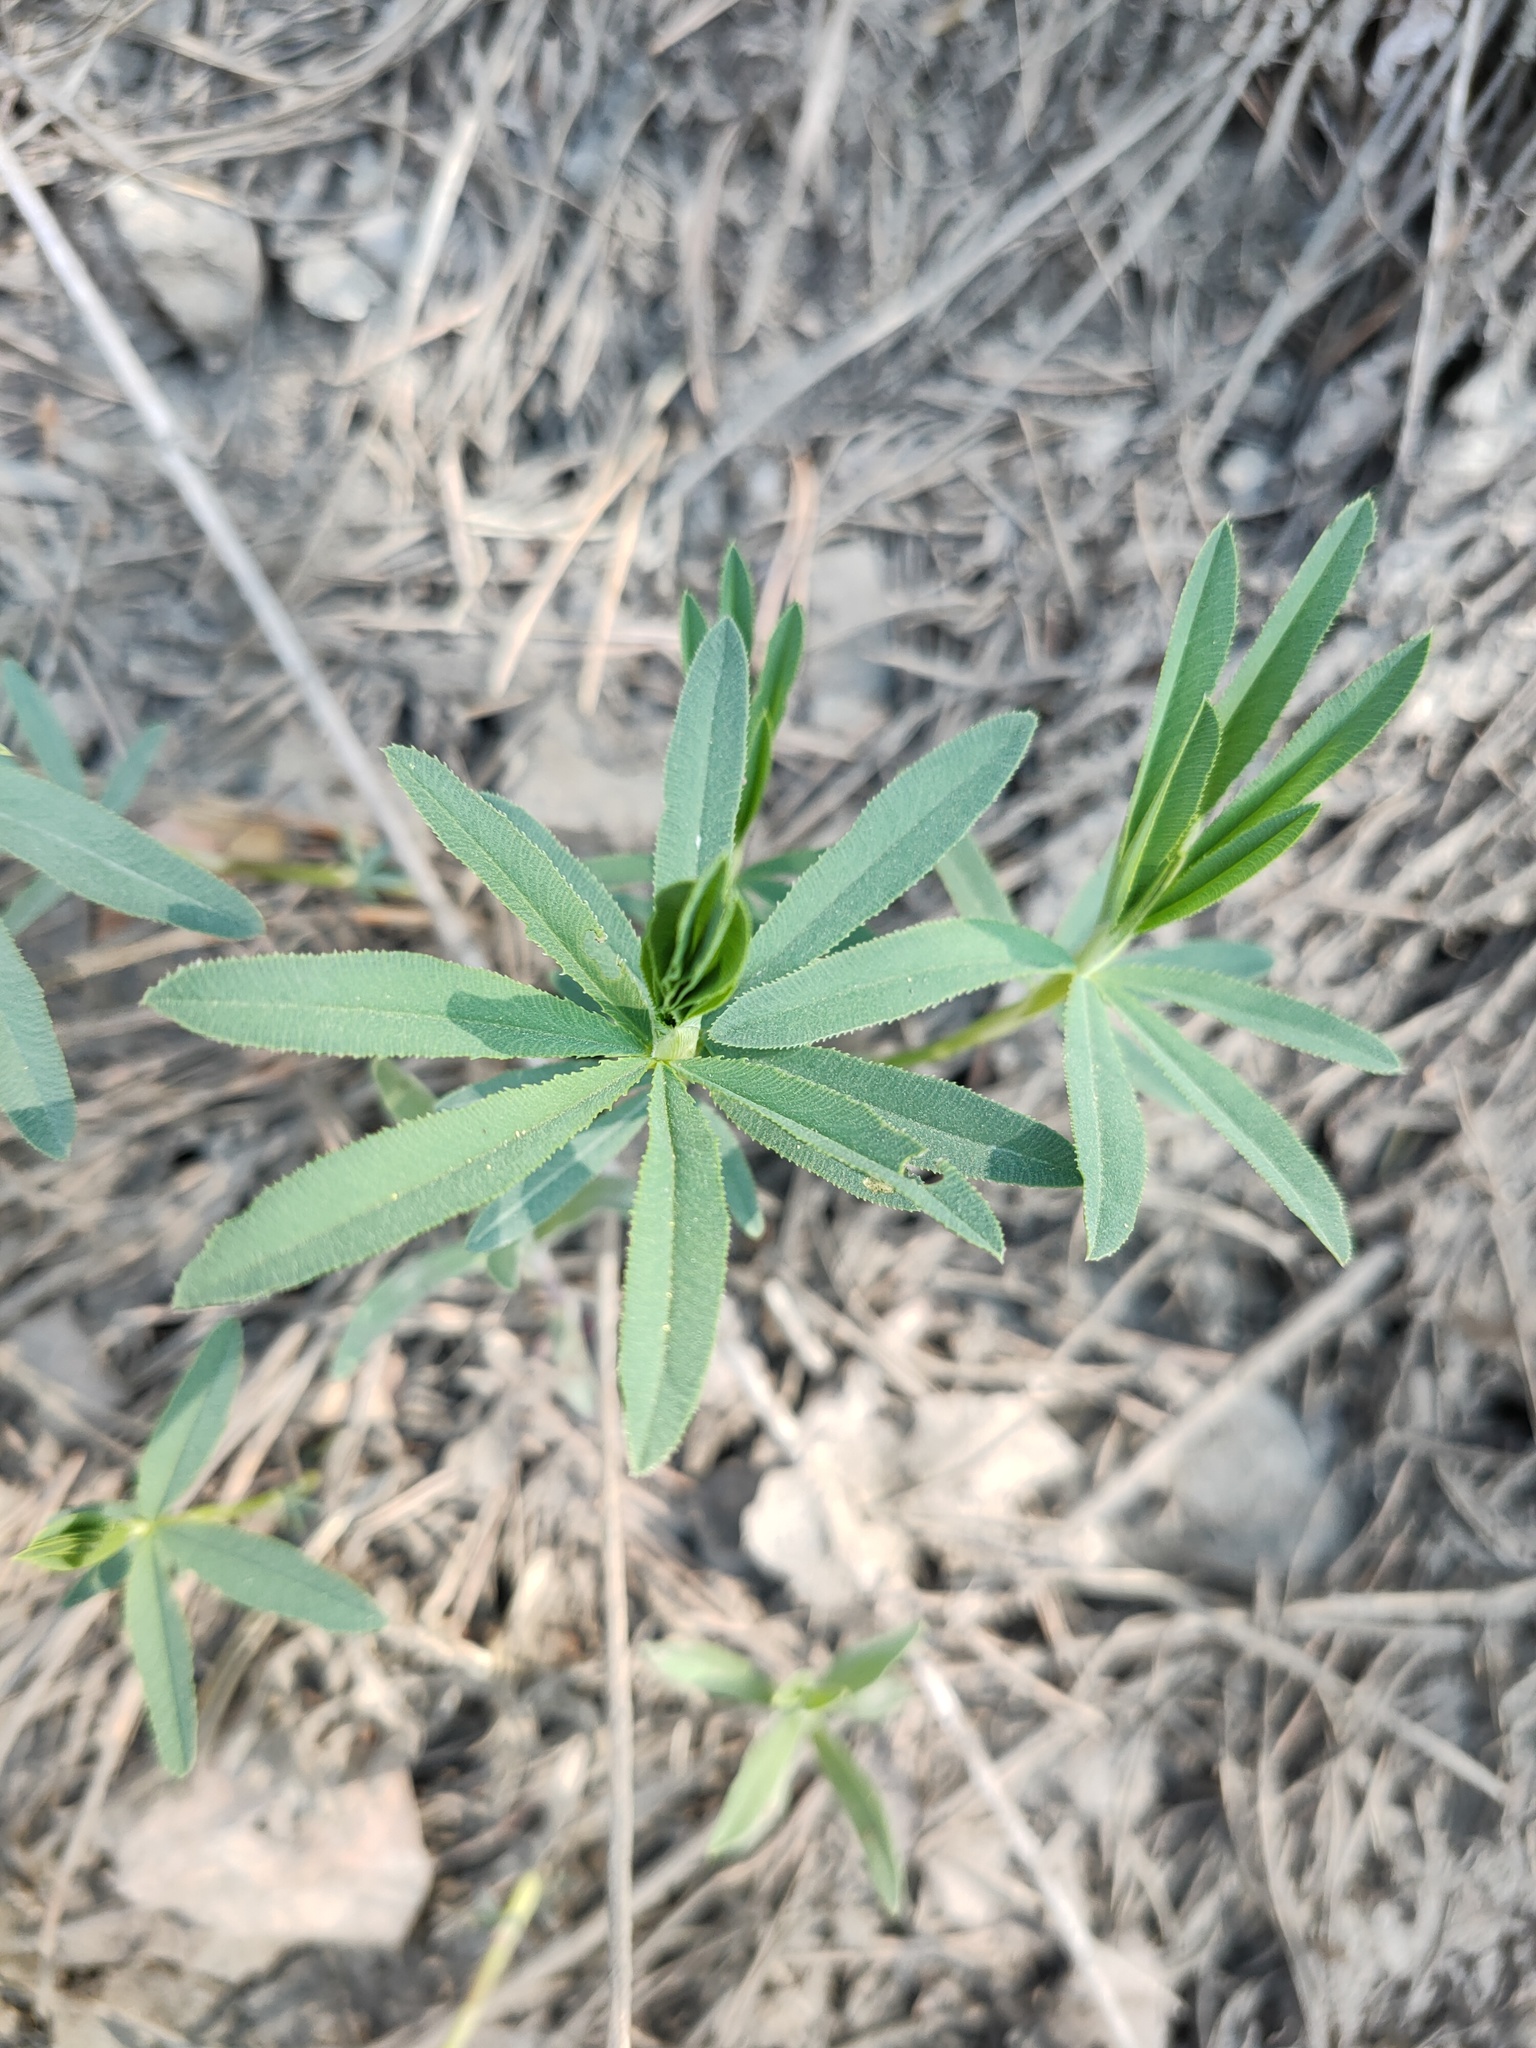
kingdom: Plantae
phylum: Tracheophyta
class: Magnoliopsida
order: Fabales
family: Fabaceae
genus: Trifolium
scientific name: Trifolium lupinaster
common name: Lupine clover
